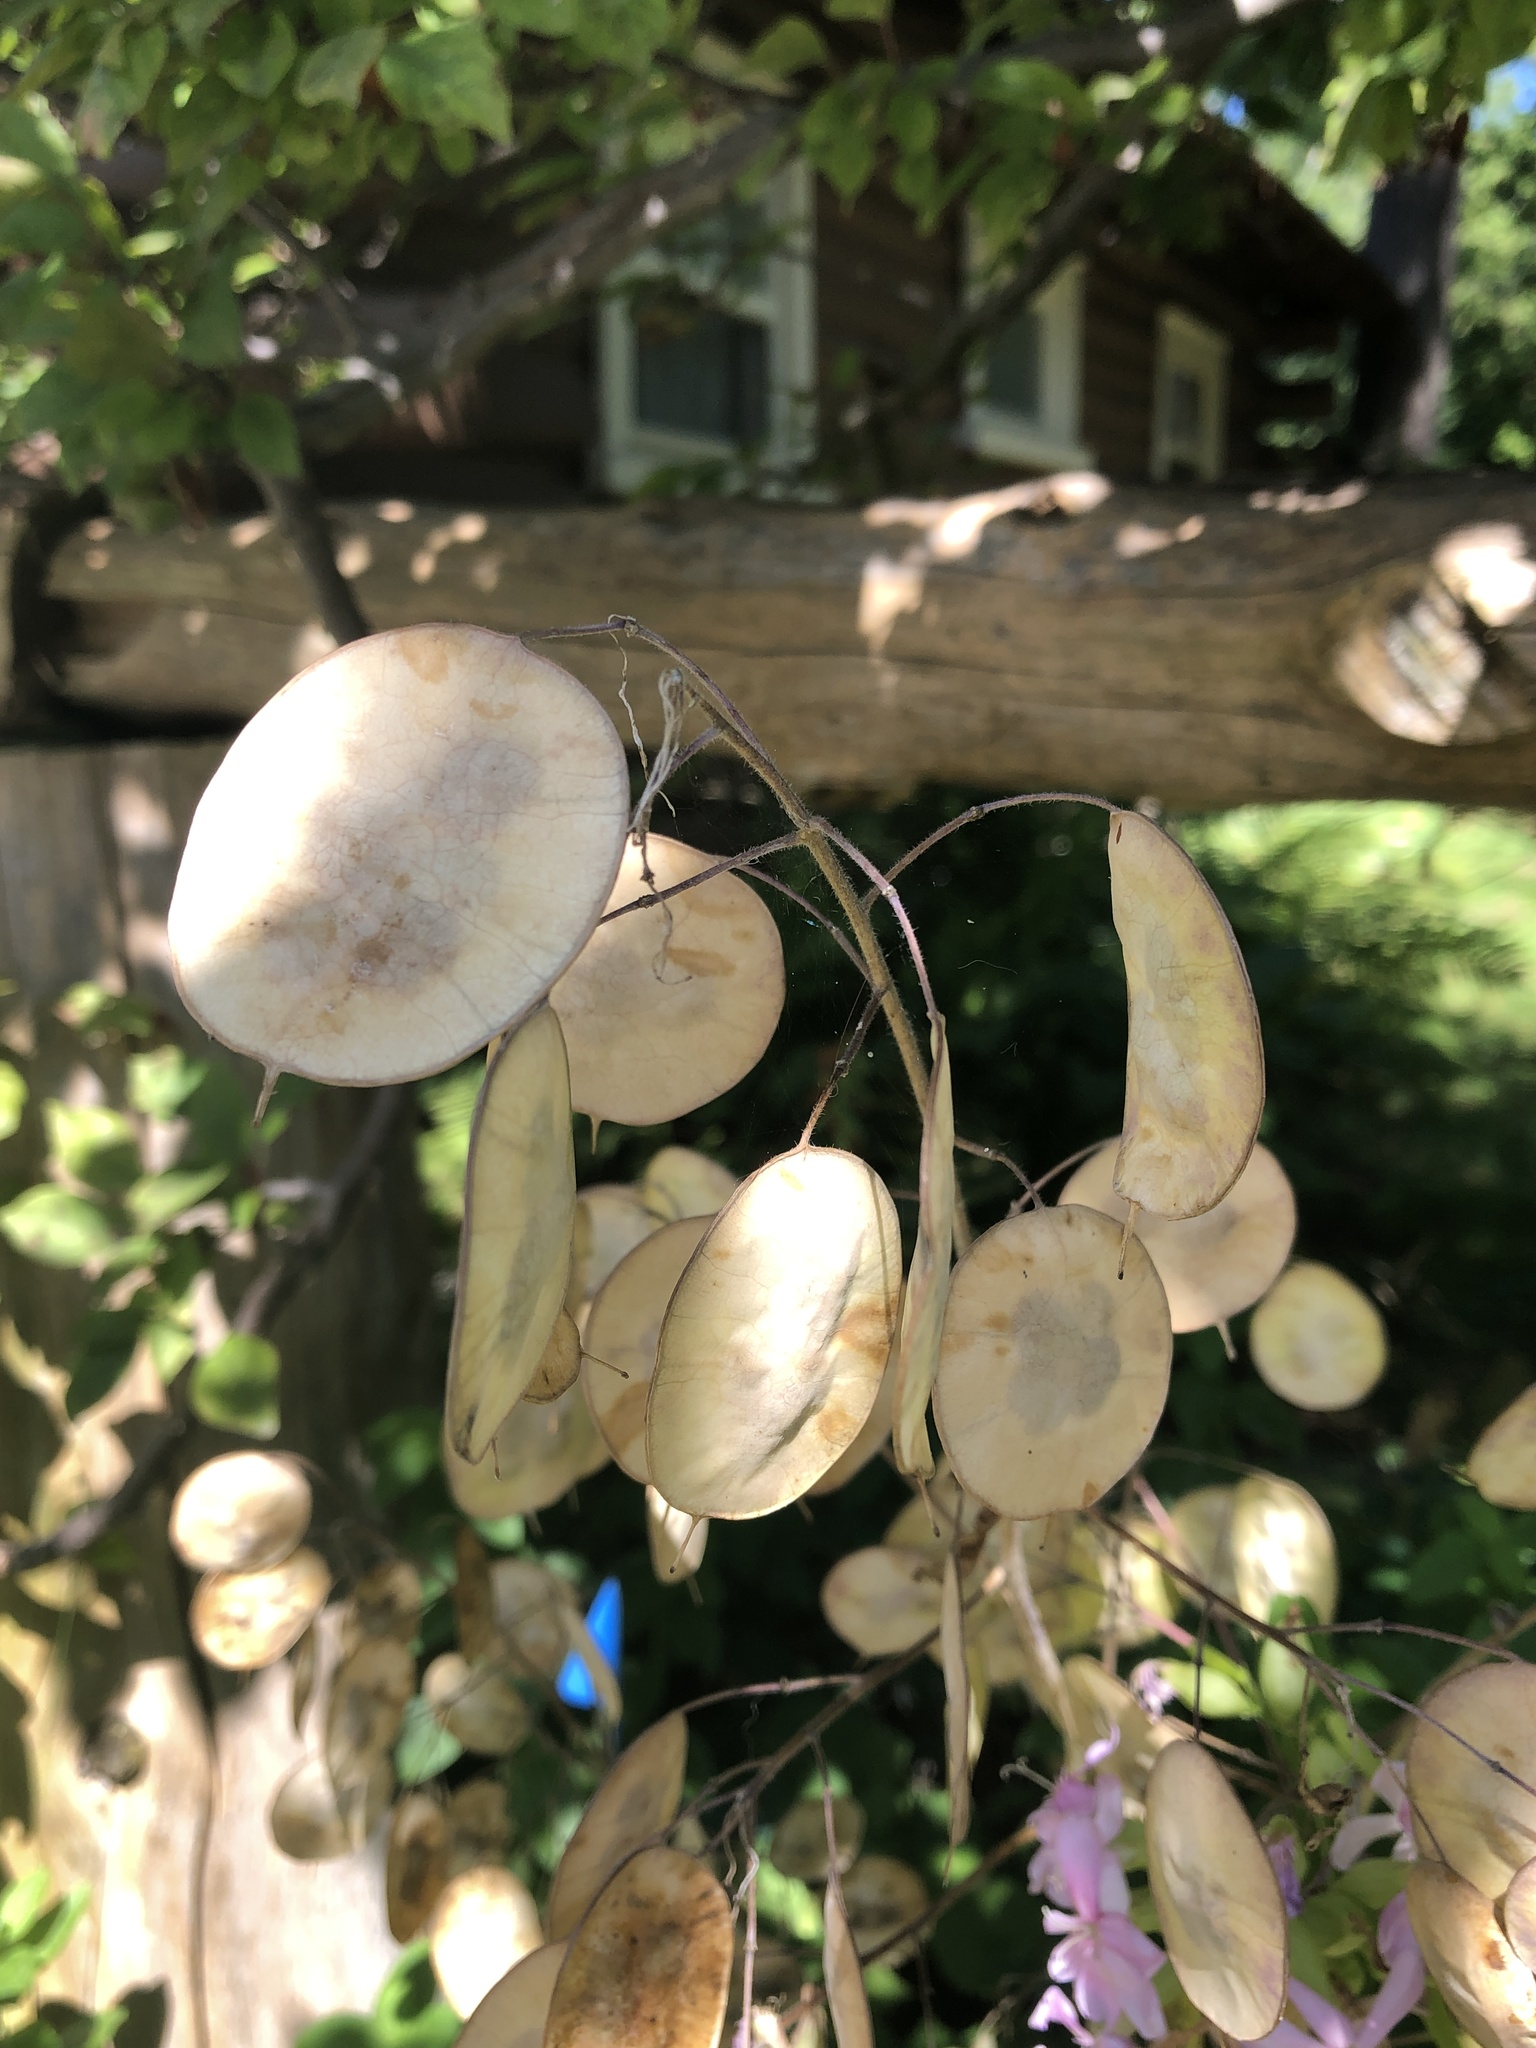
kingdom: Plantae
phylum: Tracheophyta
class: Magnoliopsida
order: Brassicales
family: Brassicaceae
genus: Lunaria
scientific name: Lunaria annua
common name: Honesty
